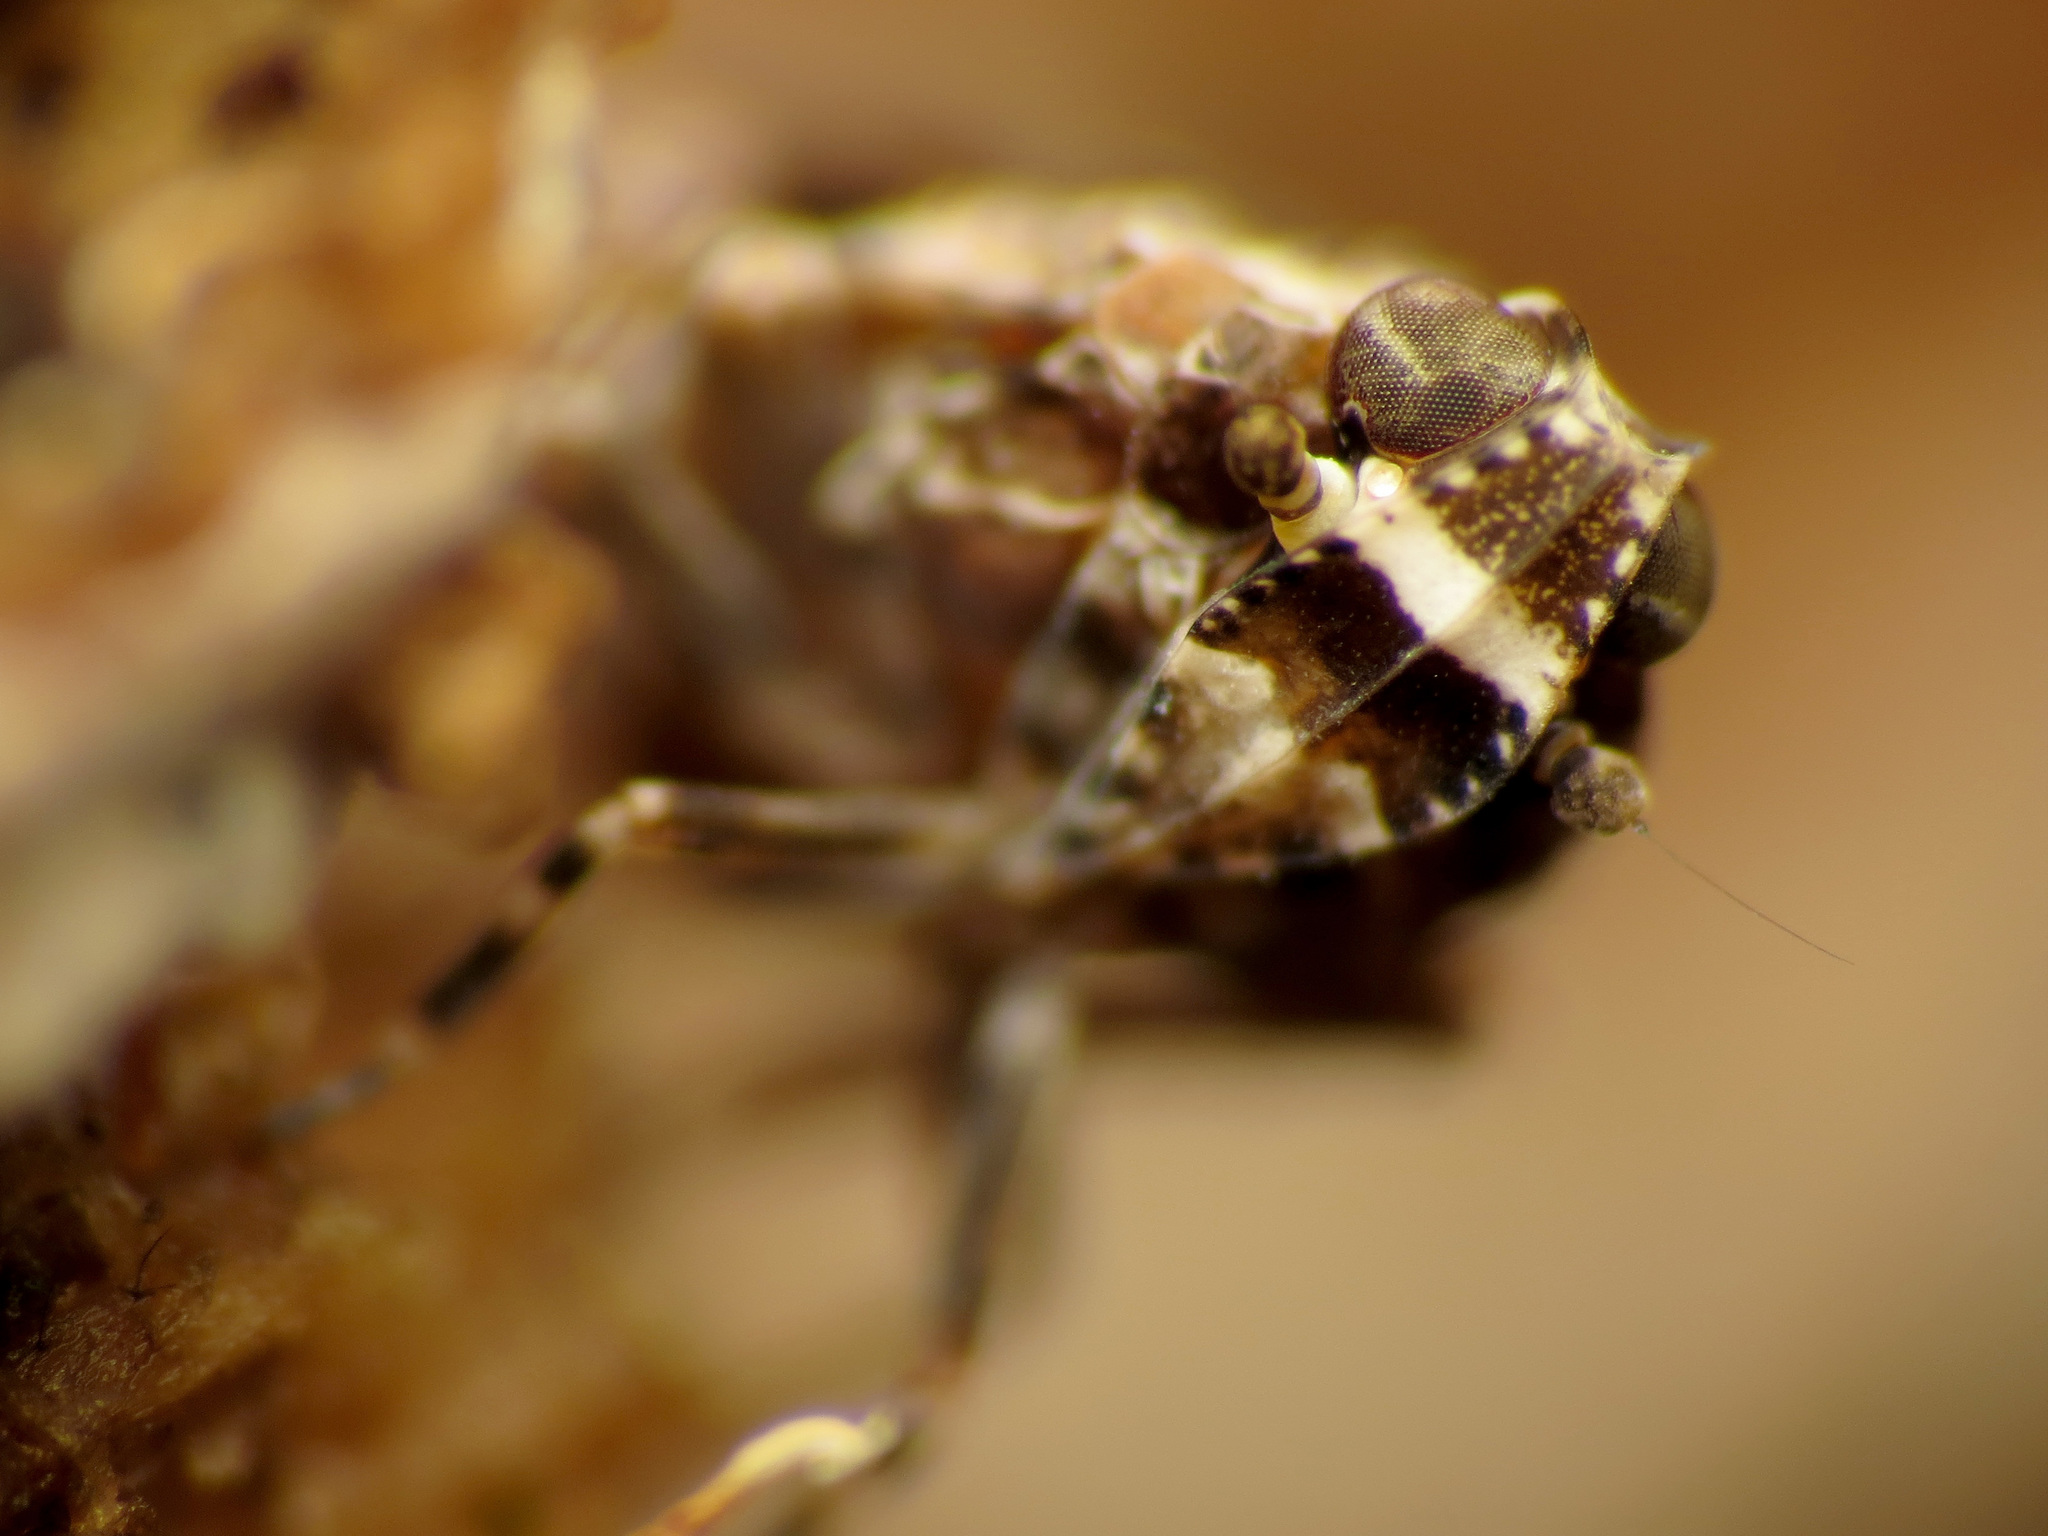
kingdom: Animalia
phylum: Arthropoda
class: Insecta
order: Hemiptera
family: Achilidae
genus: Catonia
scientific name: Catonia nava
